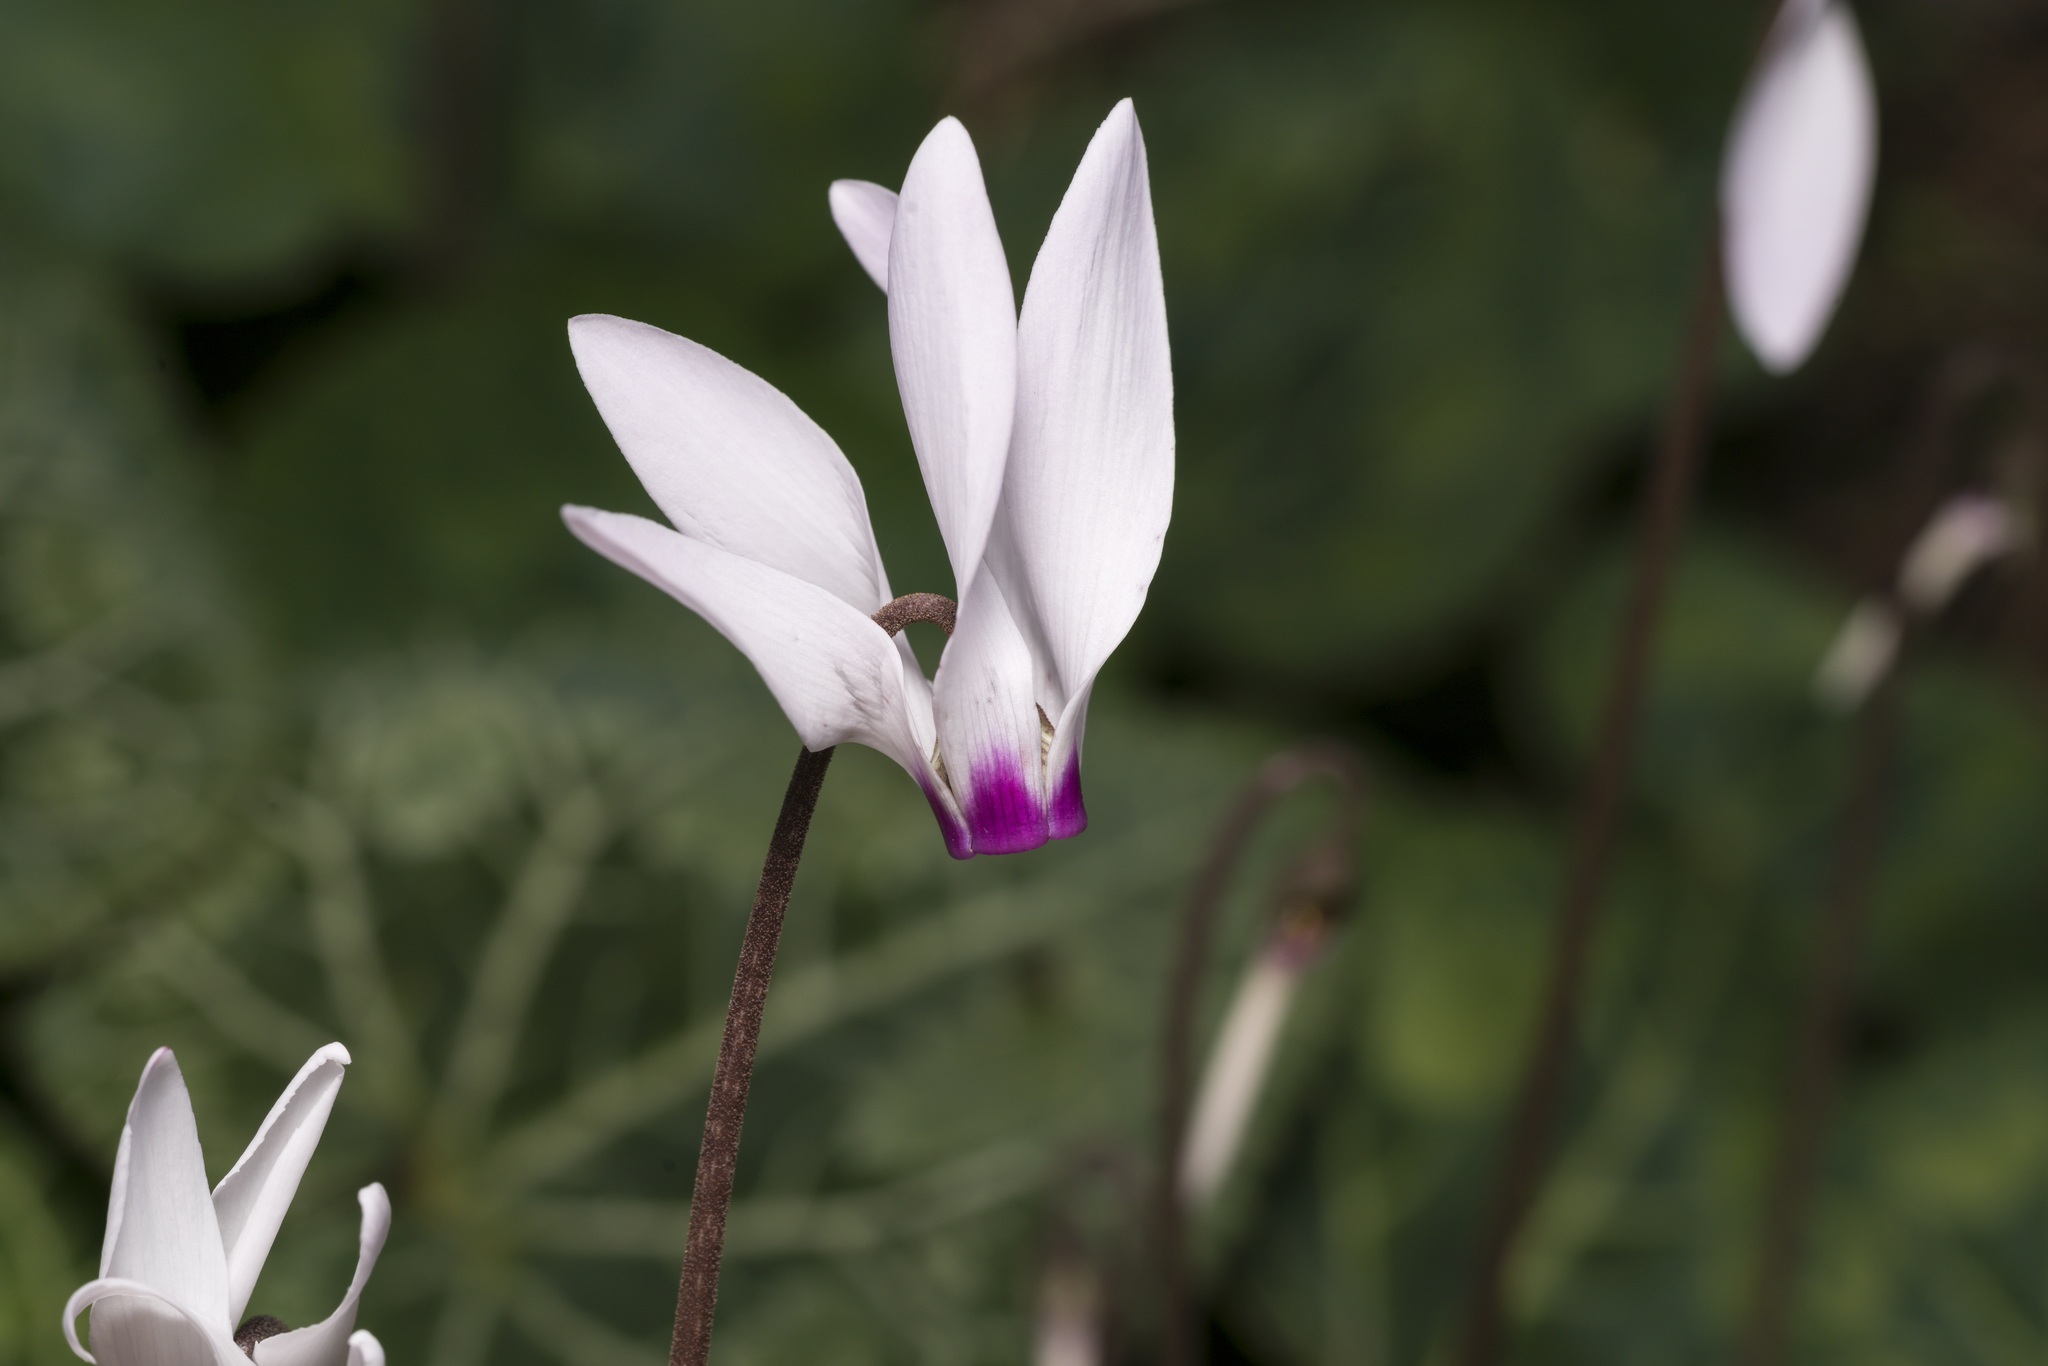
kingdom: Plantae
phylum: Tracheophyta
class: Magnoliopsida
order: Ericales
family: Primulaceae
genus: Cyclamen
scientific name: Cyclamen persicum
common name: Florist's cyclamen
